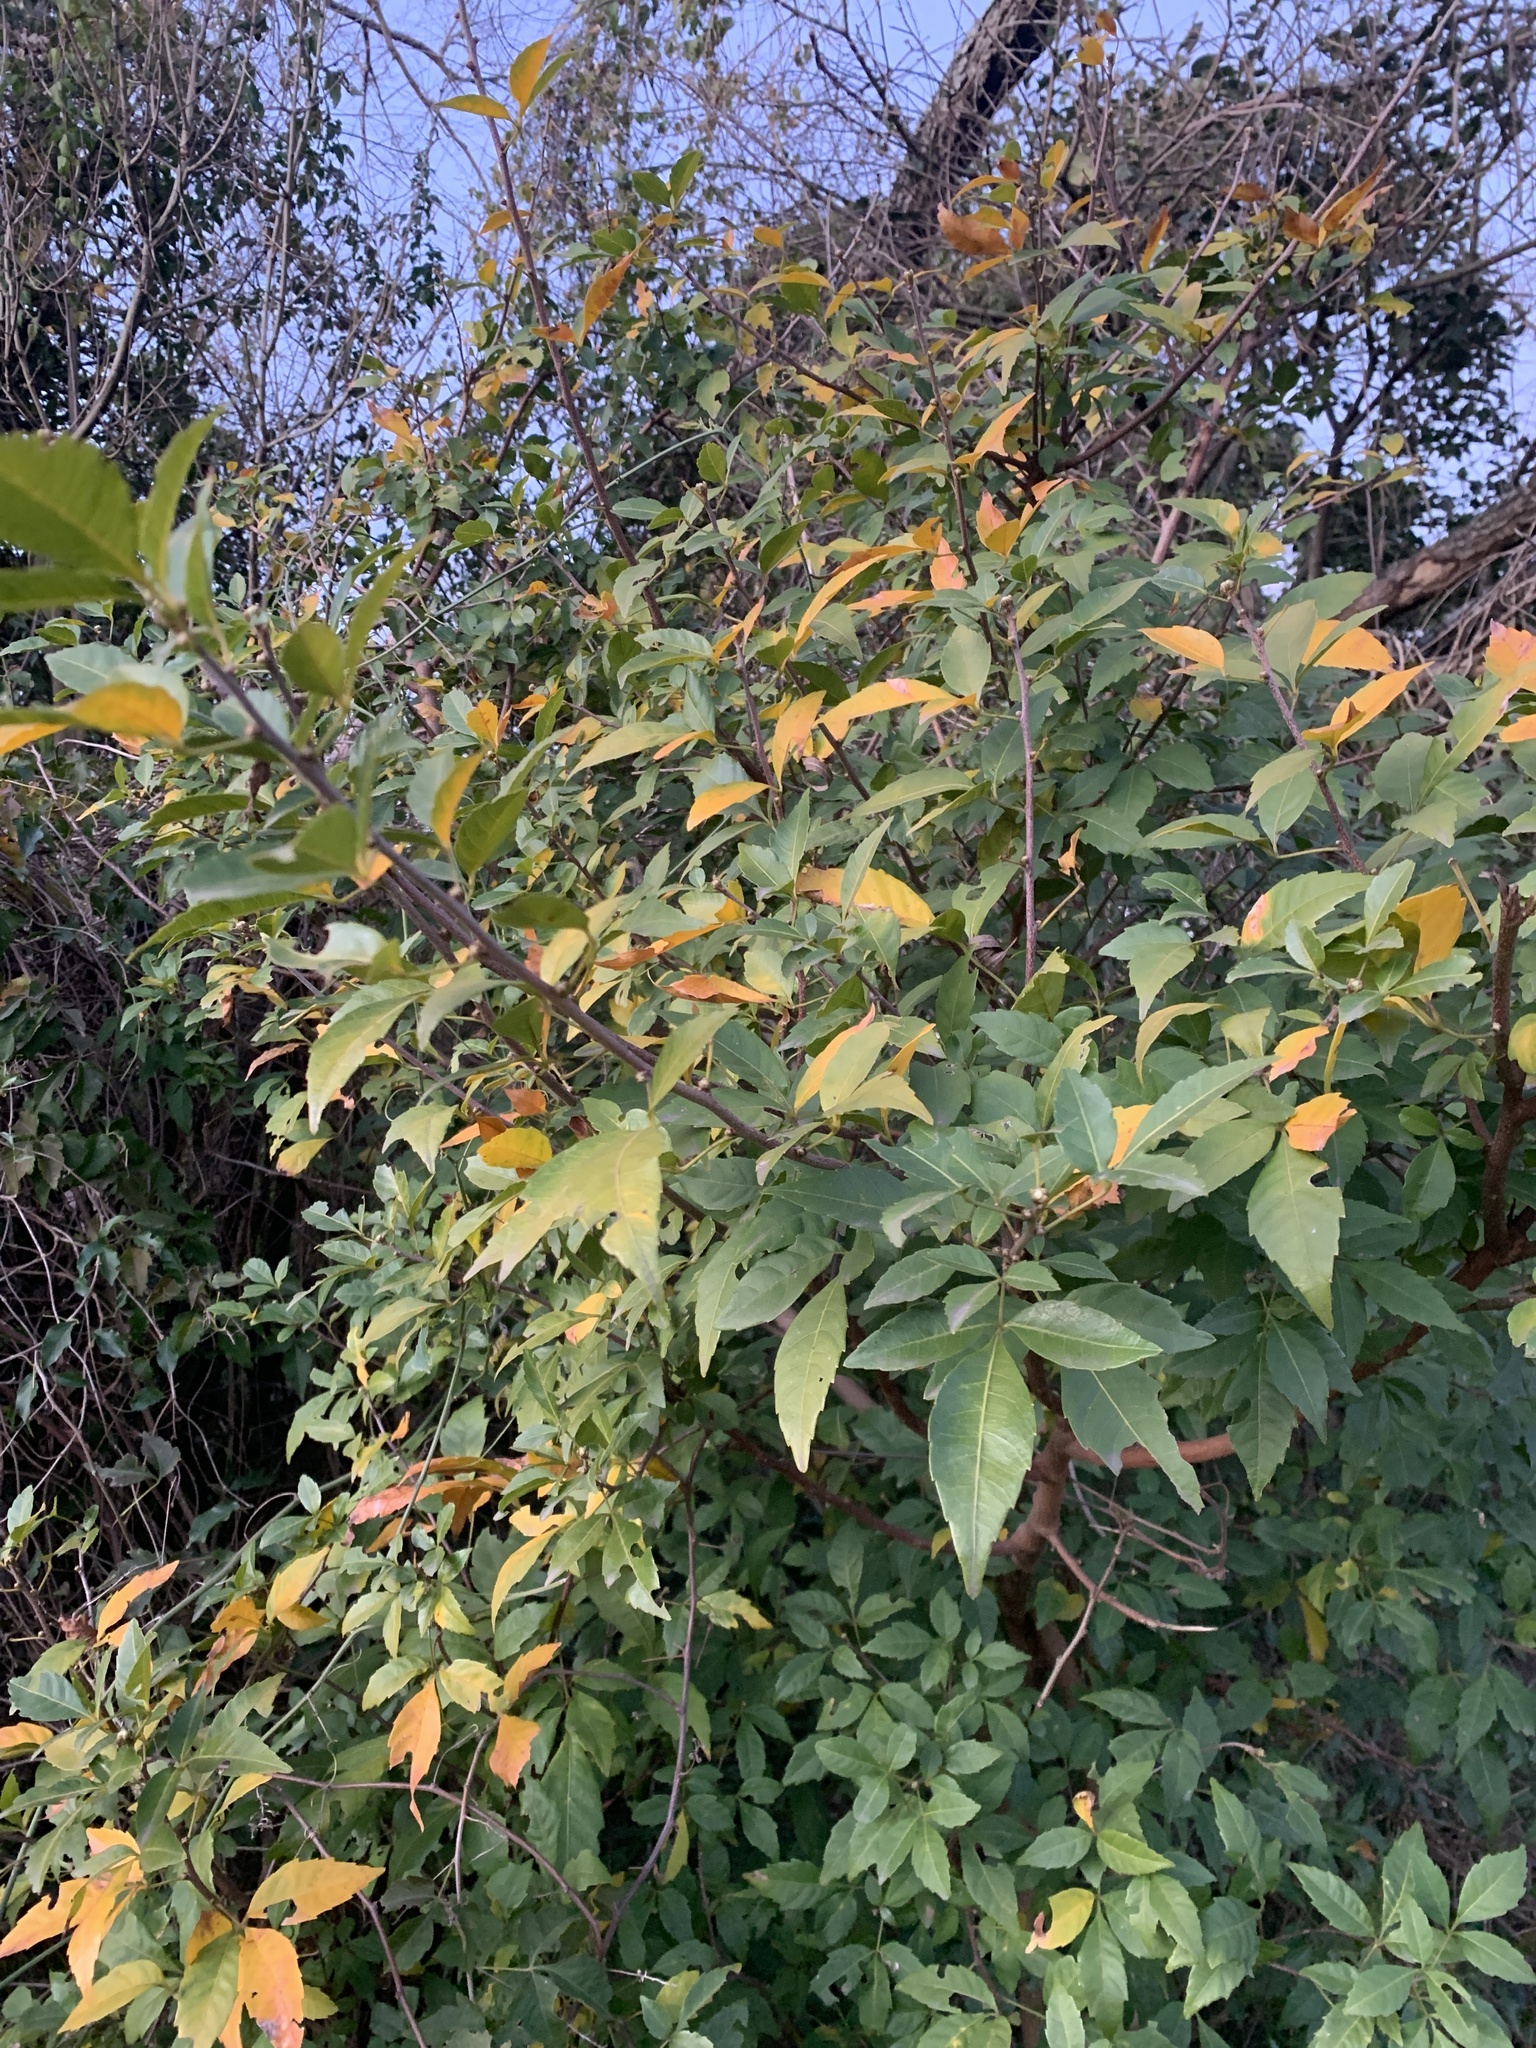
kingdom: Plantae
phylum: Tracheophyta
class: Magnoliopsida
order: Sapindales
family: Sapindaceae
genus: Allophylus
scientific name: Allophylus edulis
